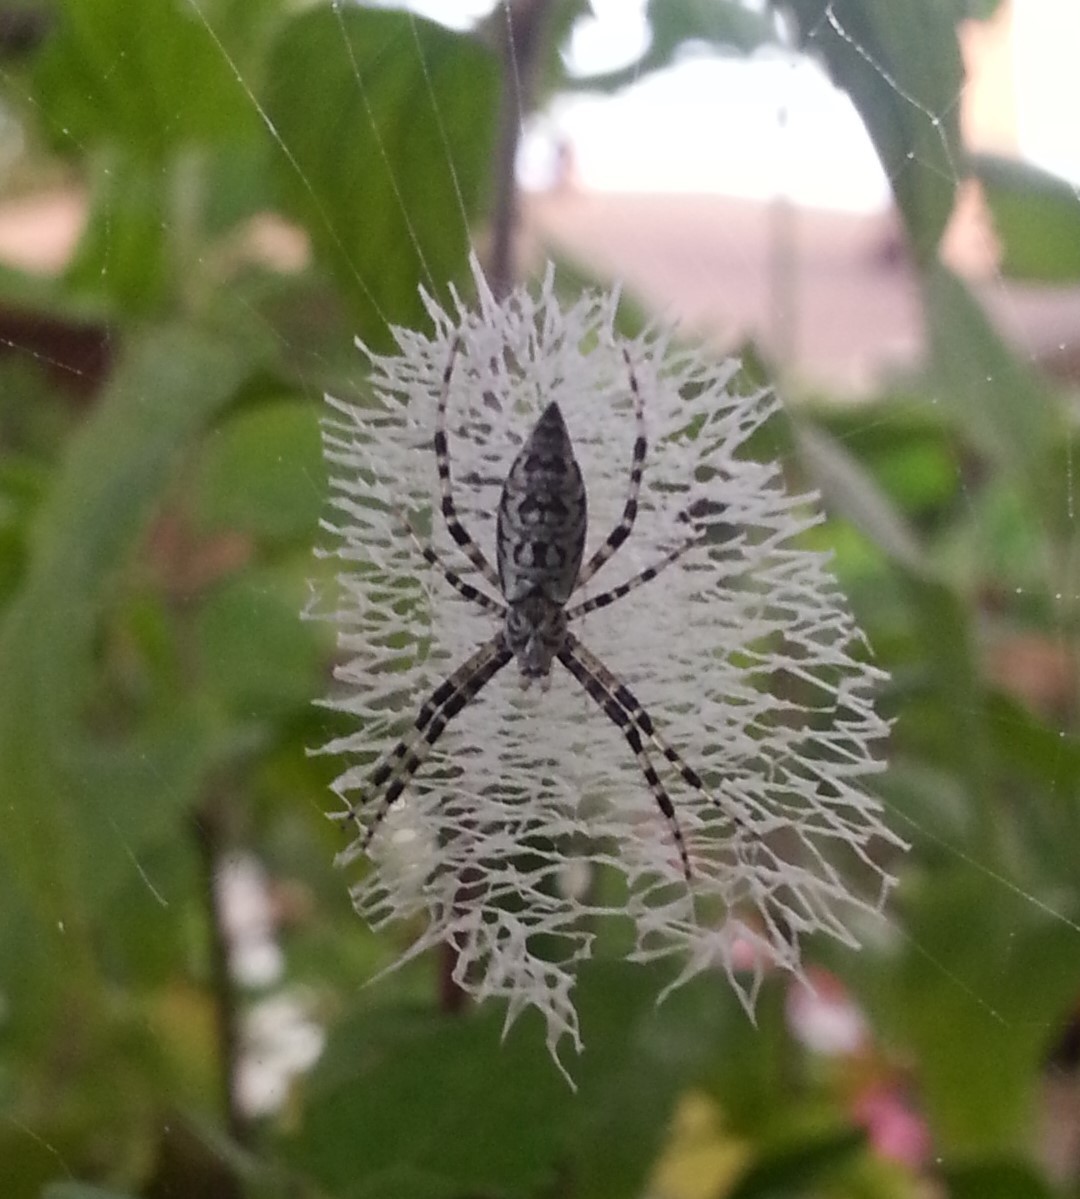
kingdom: Animalia
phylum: Arthropoda
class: Arachnida
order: Araneae
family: Araneidae
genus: Argiope
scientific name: Argiope aurantia
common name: Orb weavers
